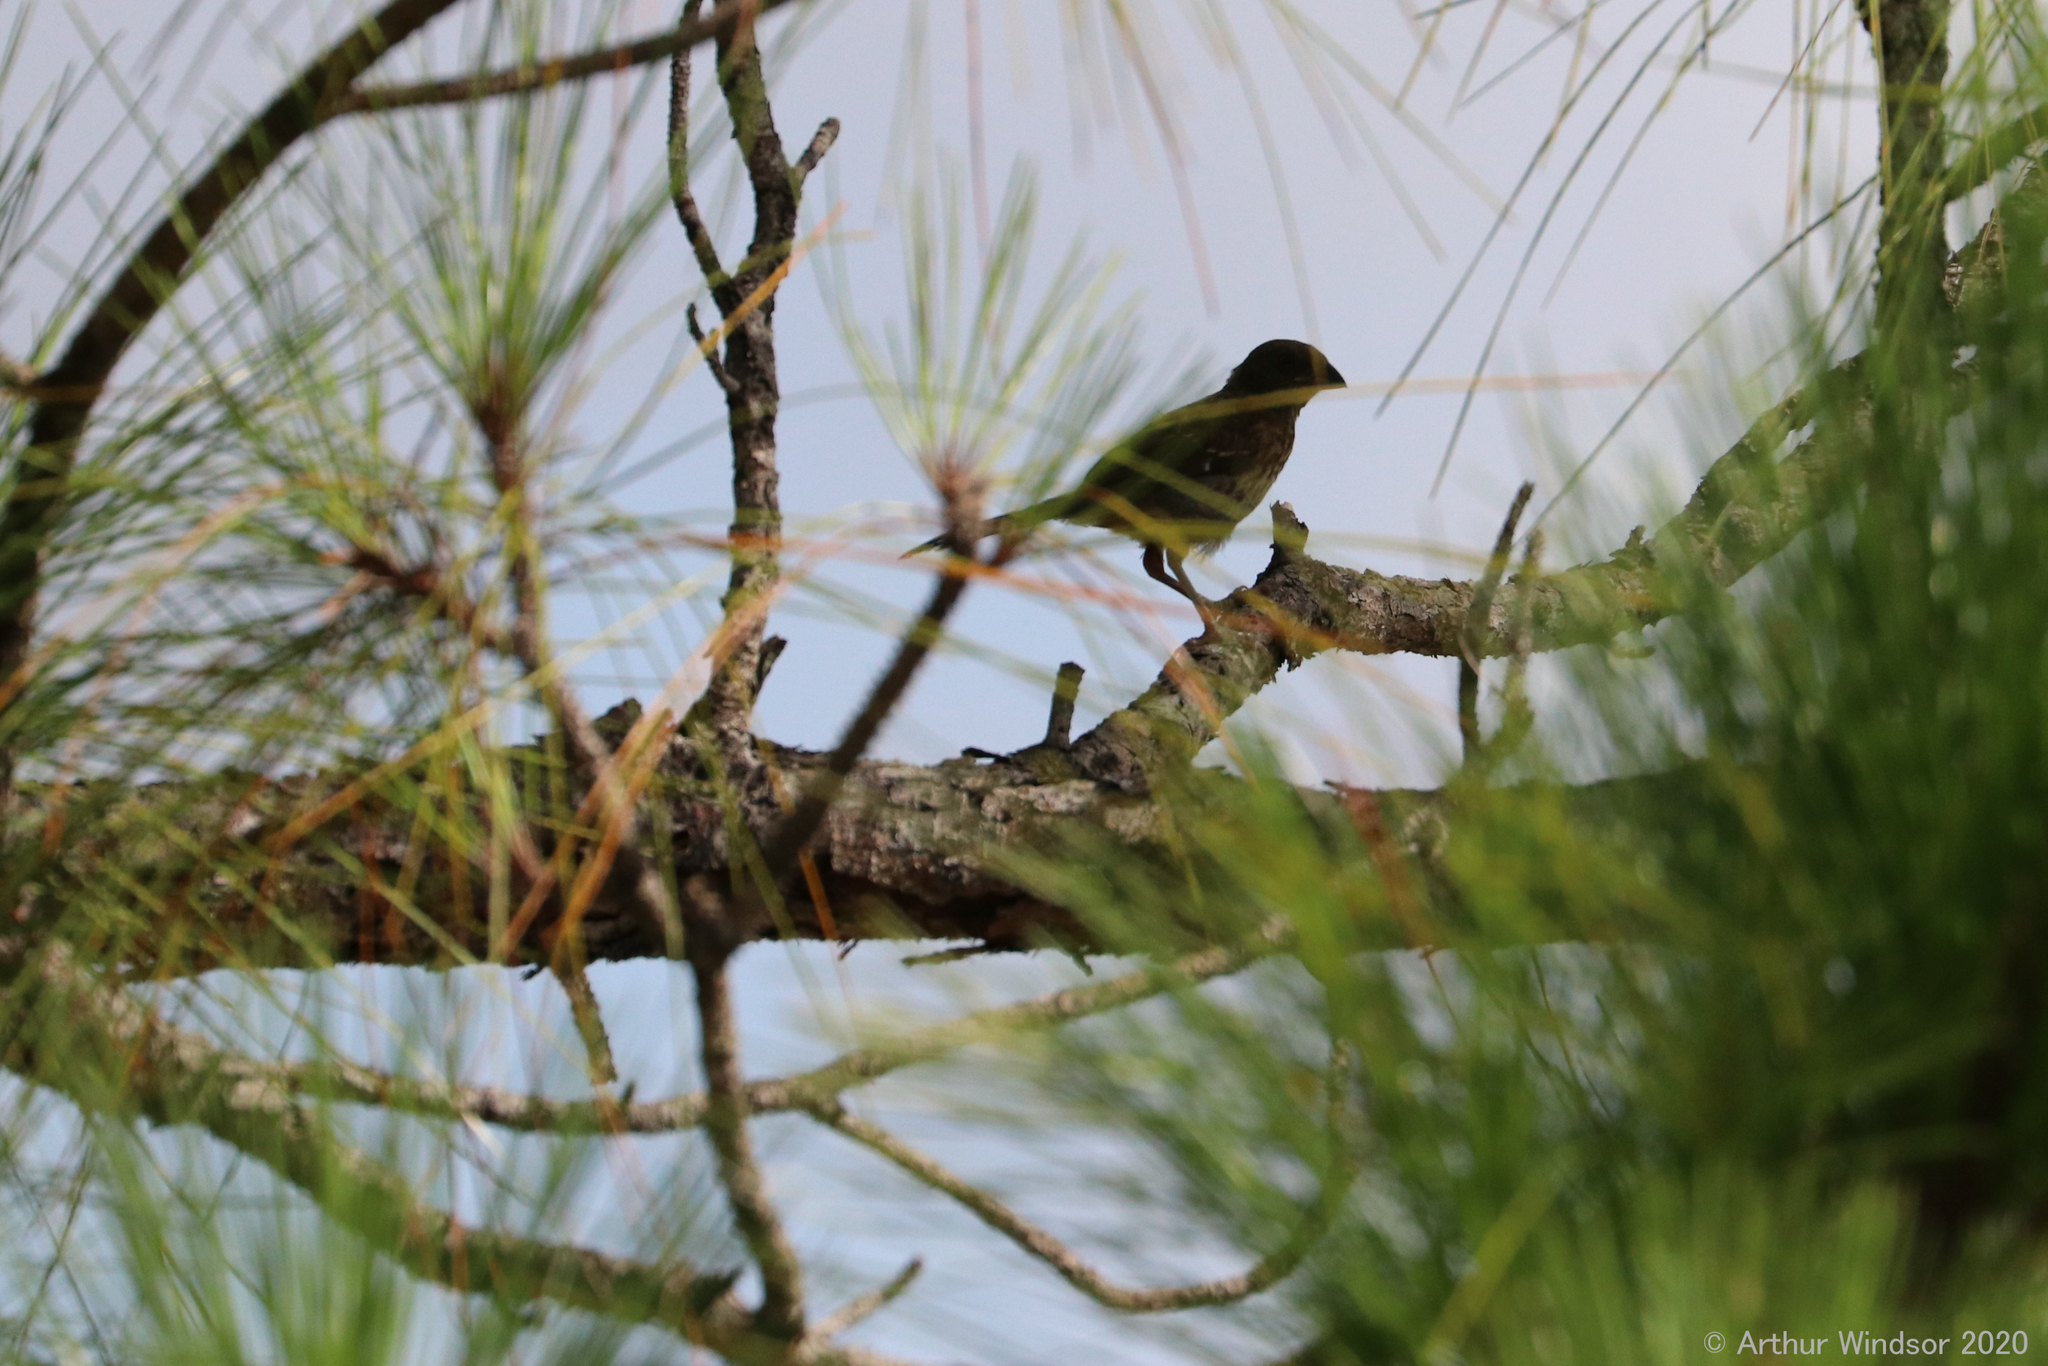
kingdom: Animalia
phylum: Chordata
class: Aves
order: Passeriformes
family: Passerellidae
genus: Pipilo
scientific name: Pipilo erythrophthalmus
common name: Eastern towhee
